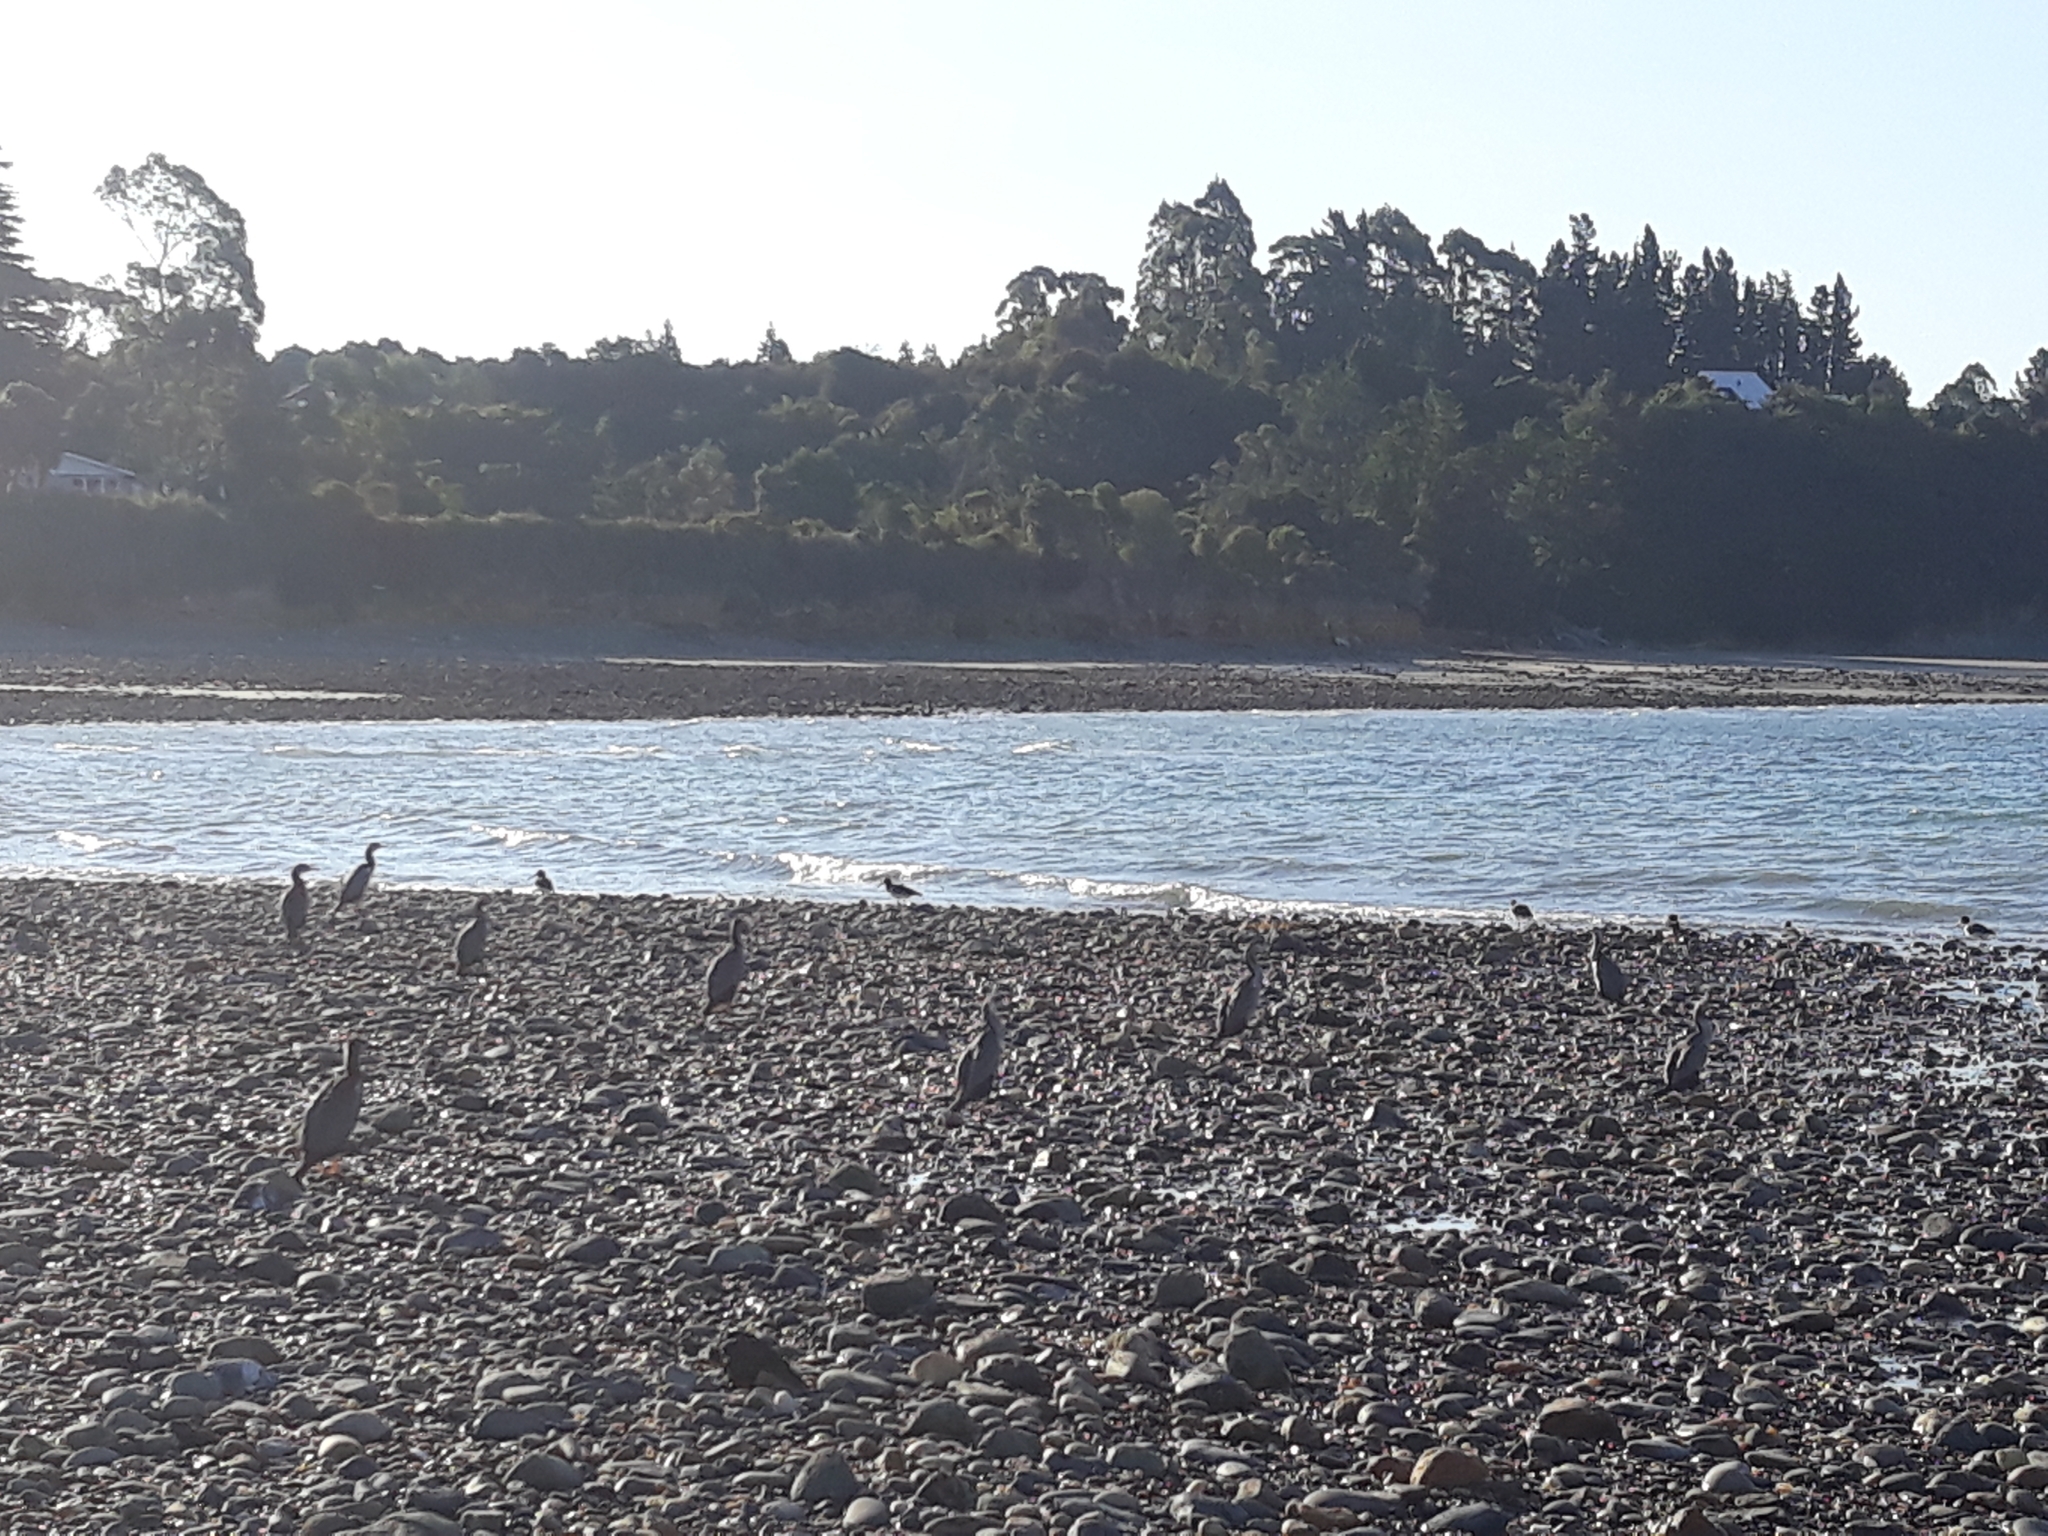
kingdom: Animalia
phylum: Chordata
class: Aves
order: Suliformes
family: Phalacrocoracidae
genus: Phalacrocorax
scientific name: Phalacrocorax punctatus
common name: Spotted shag
